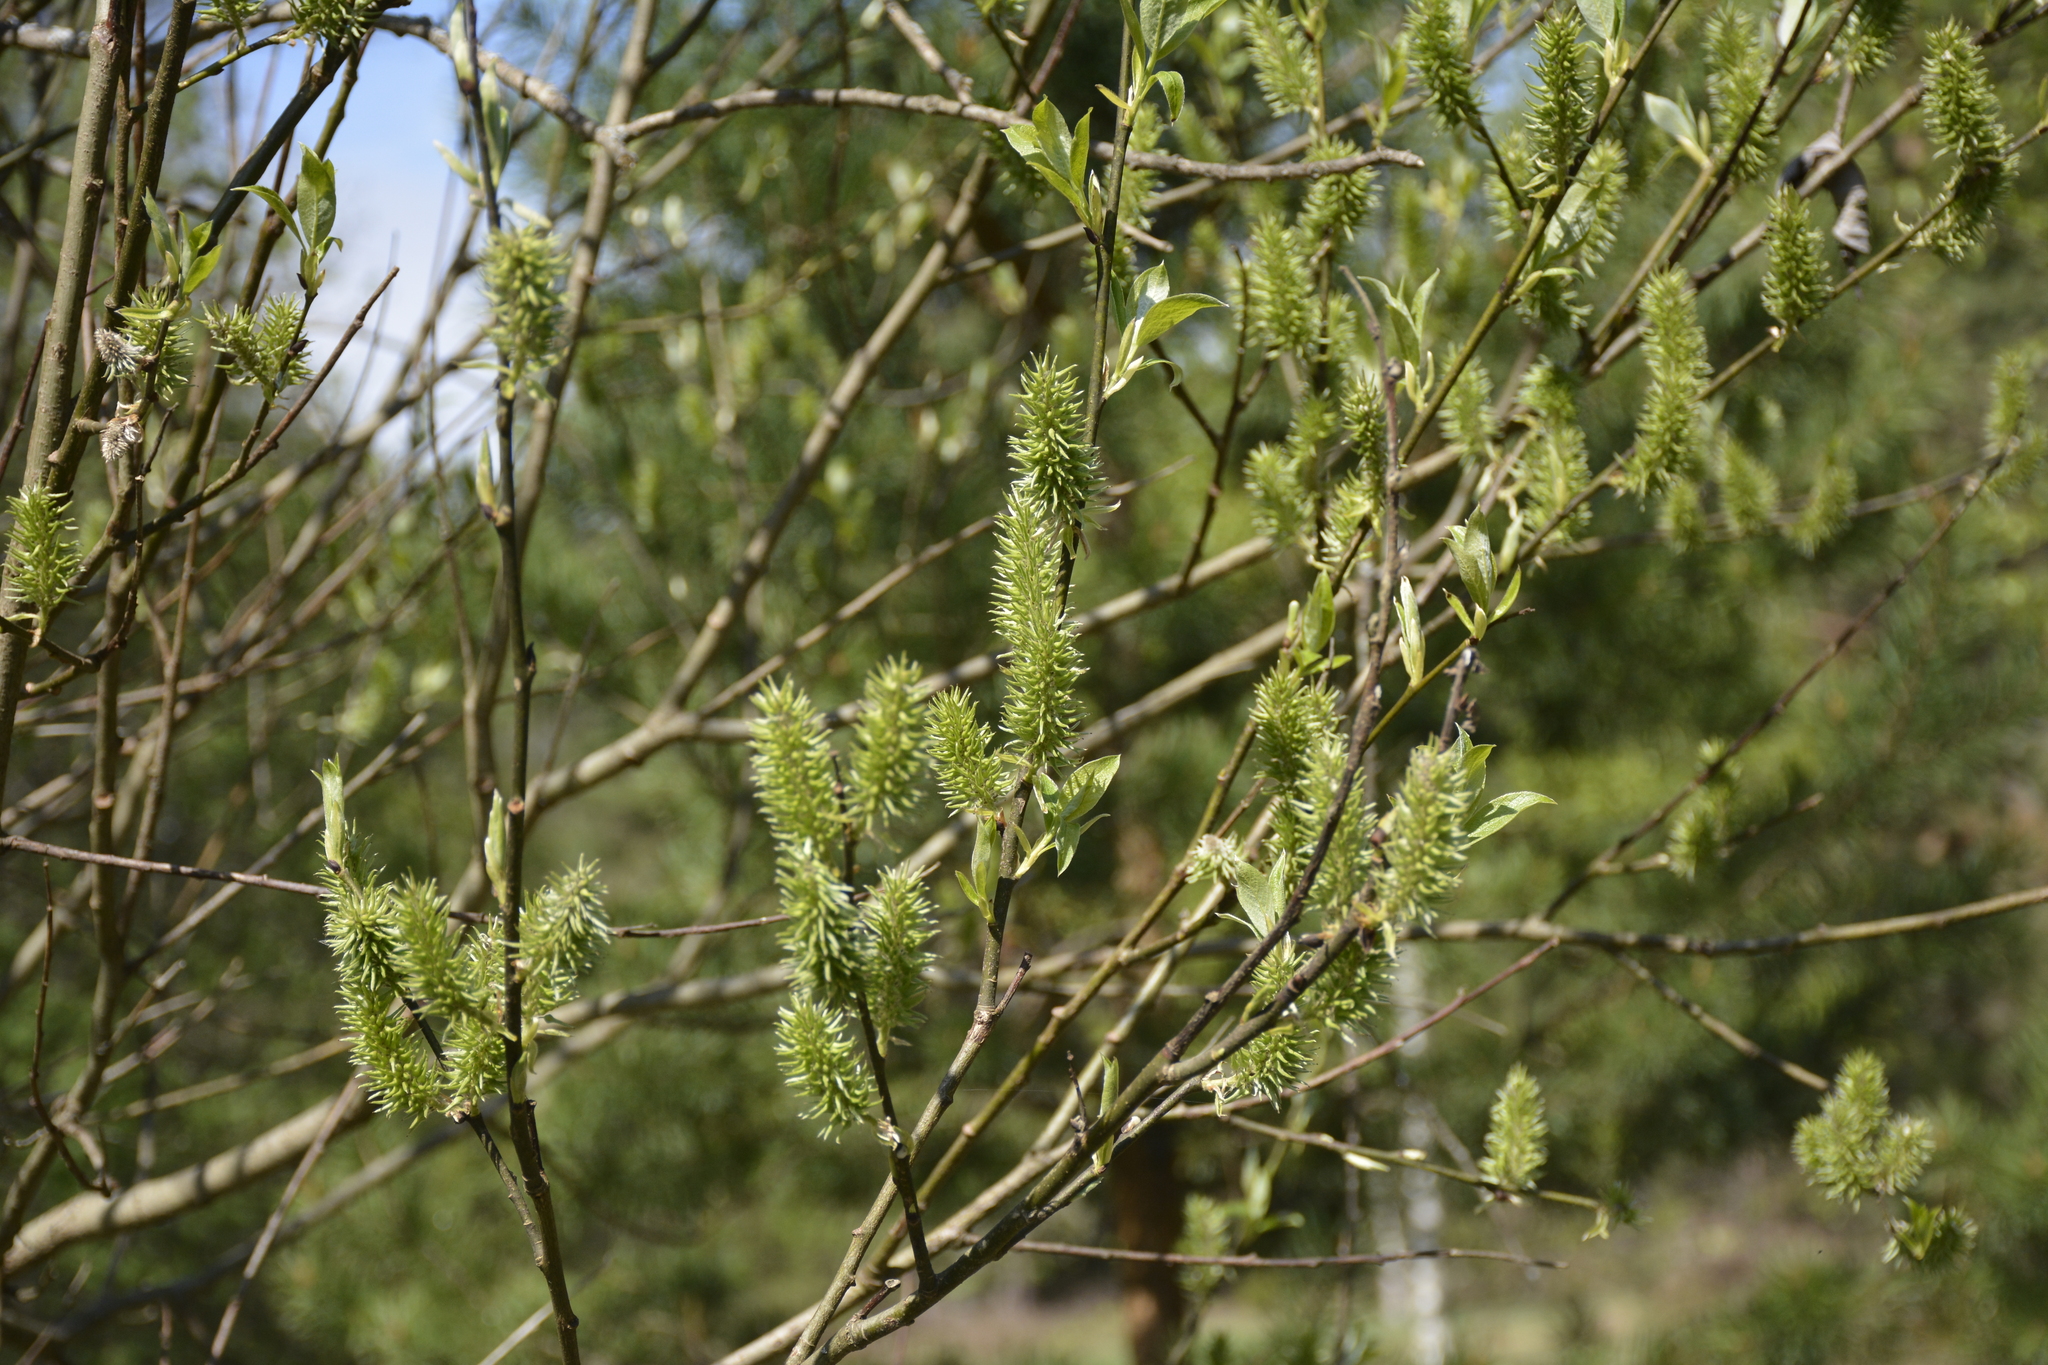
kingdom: Plantae
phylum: Tracheophyta
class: Magnoliopsida
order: Malpighiales
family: Salicaceae
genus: Salix
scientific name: Salix caprea
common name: Goat willow
